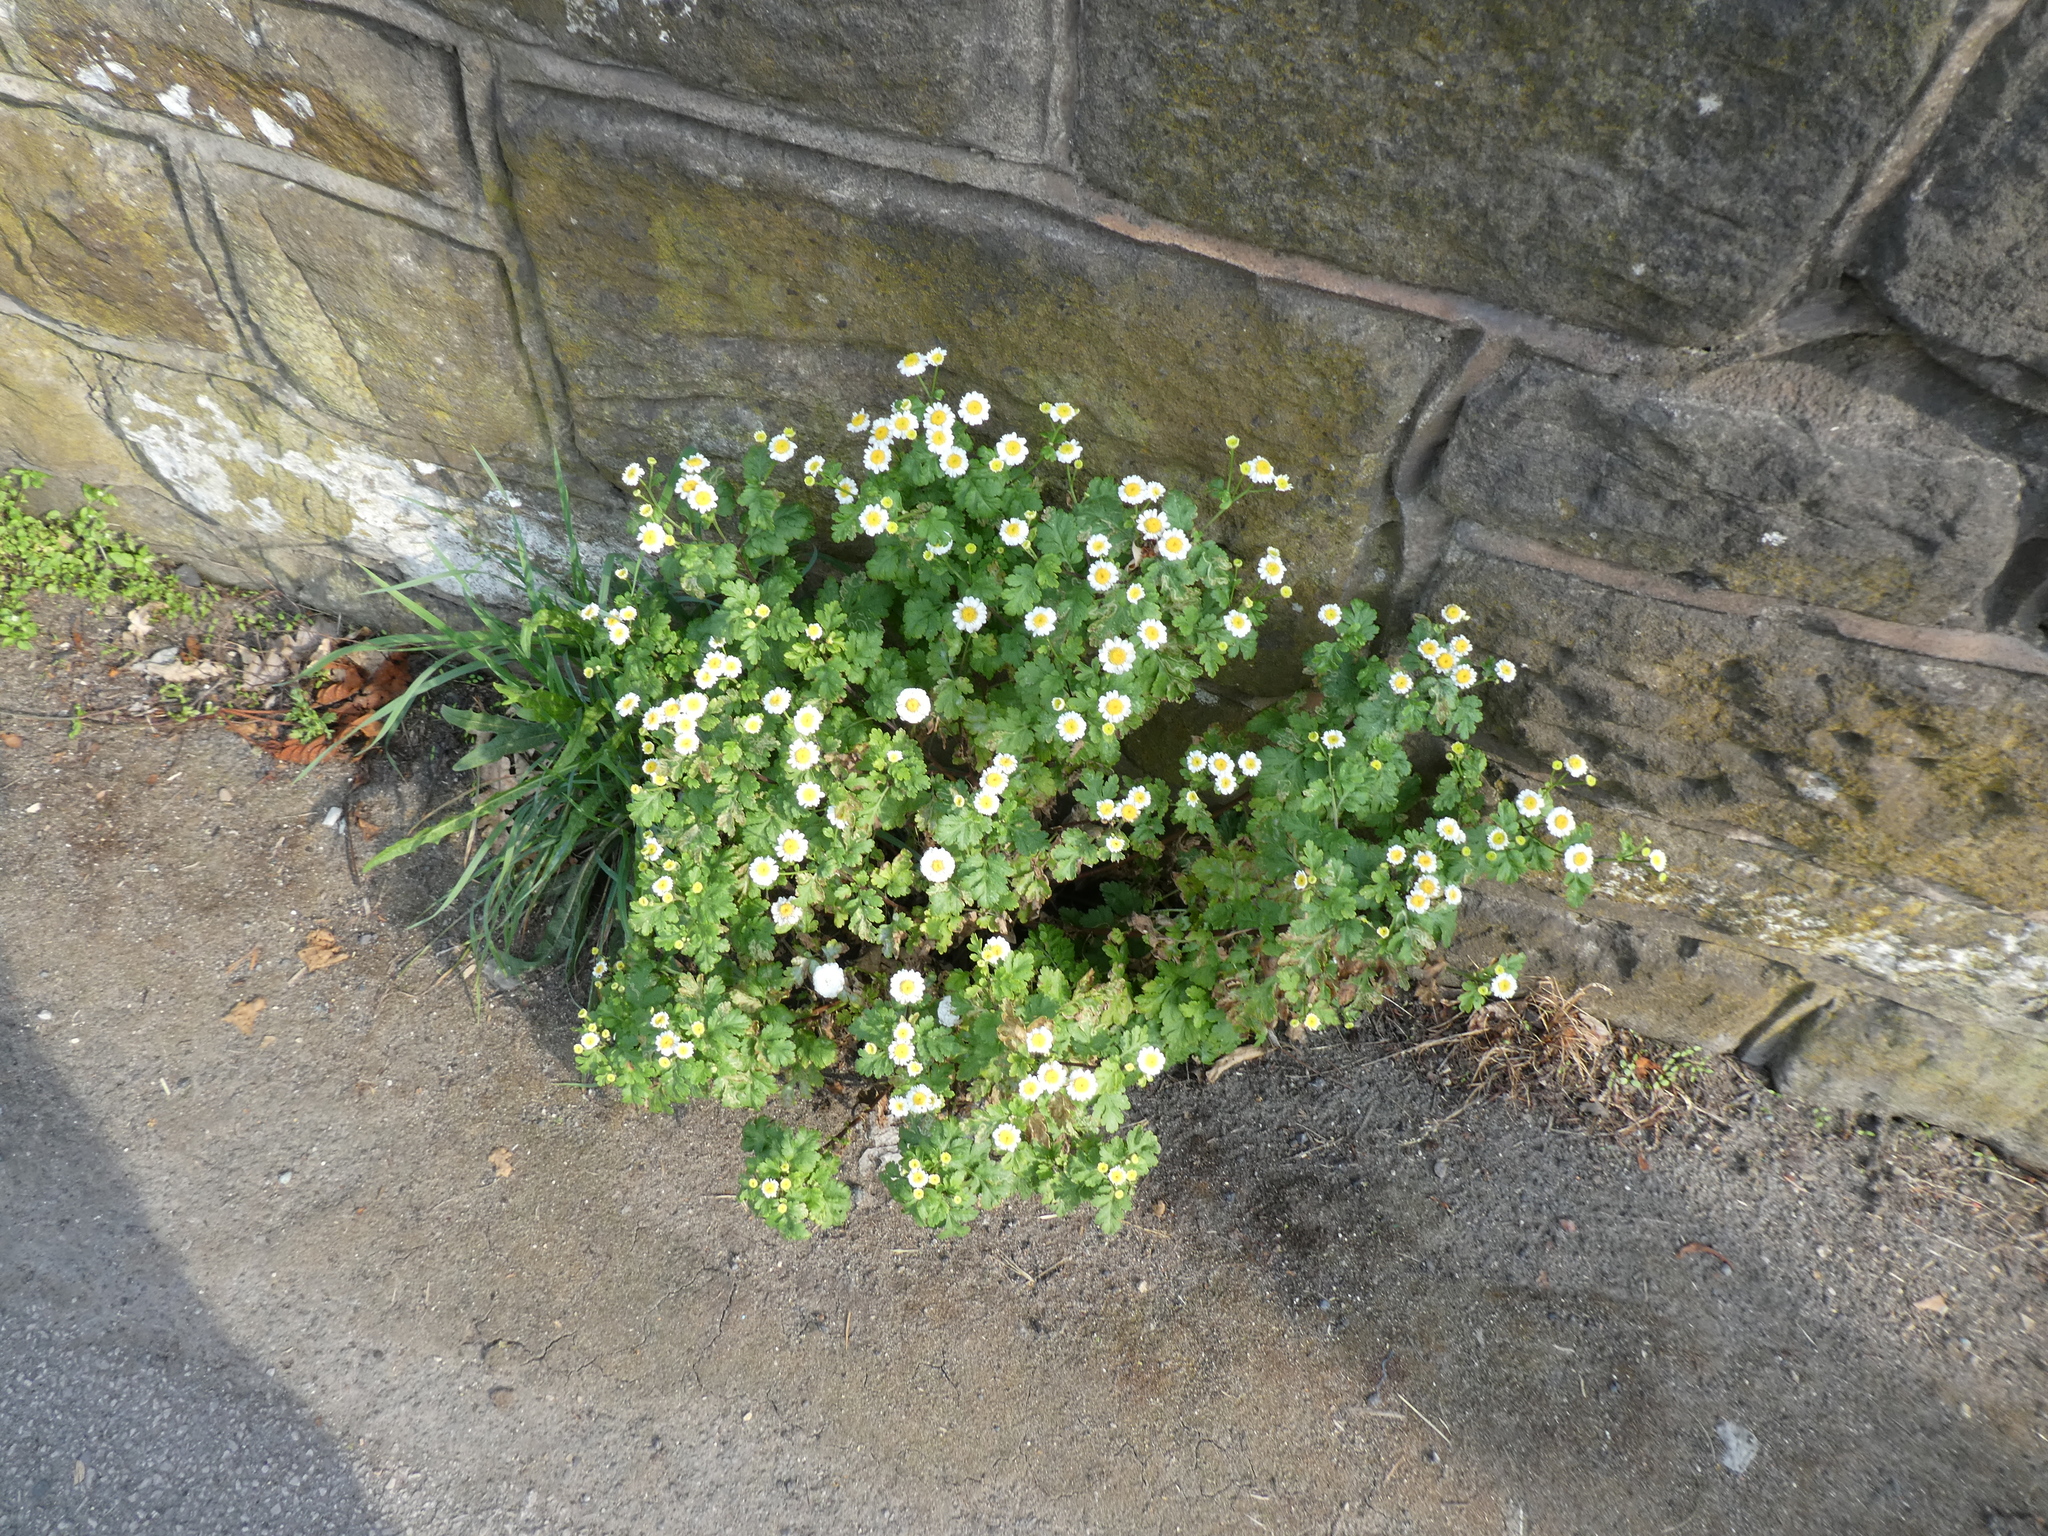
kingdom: Plantae
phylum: Tracheophyta
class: Magnoliopsida
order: Asterales
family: Asteraceae
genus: Tanacetum
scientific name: Tanacetum parthenium
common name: Feverfew
